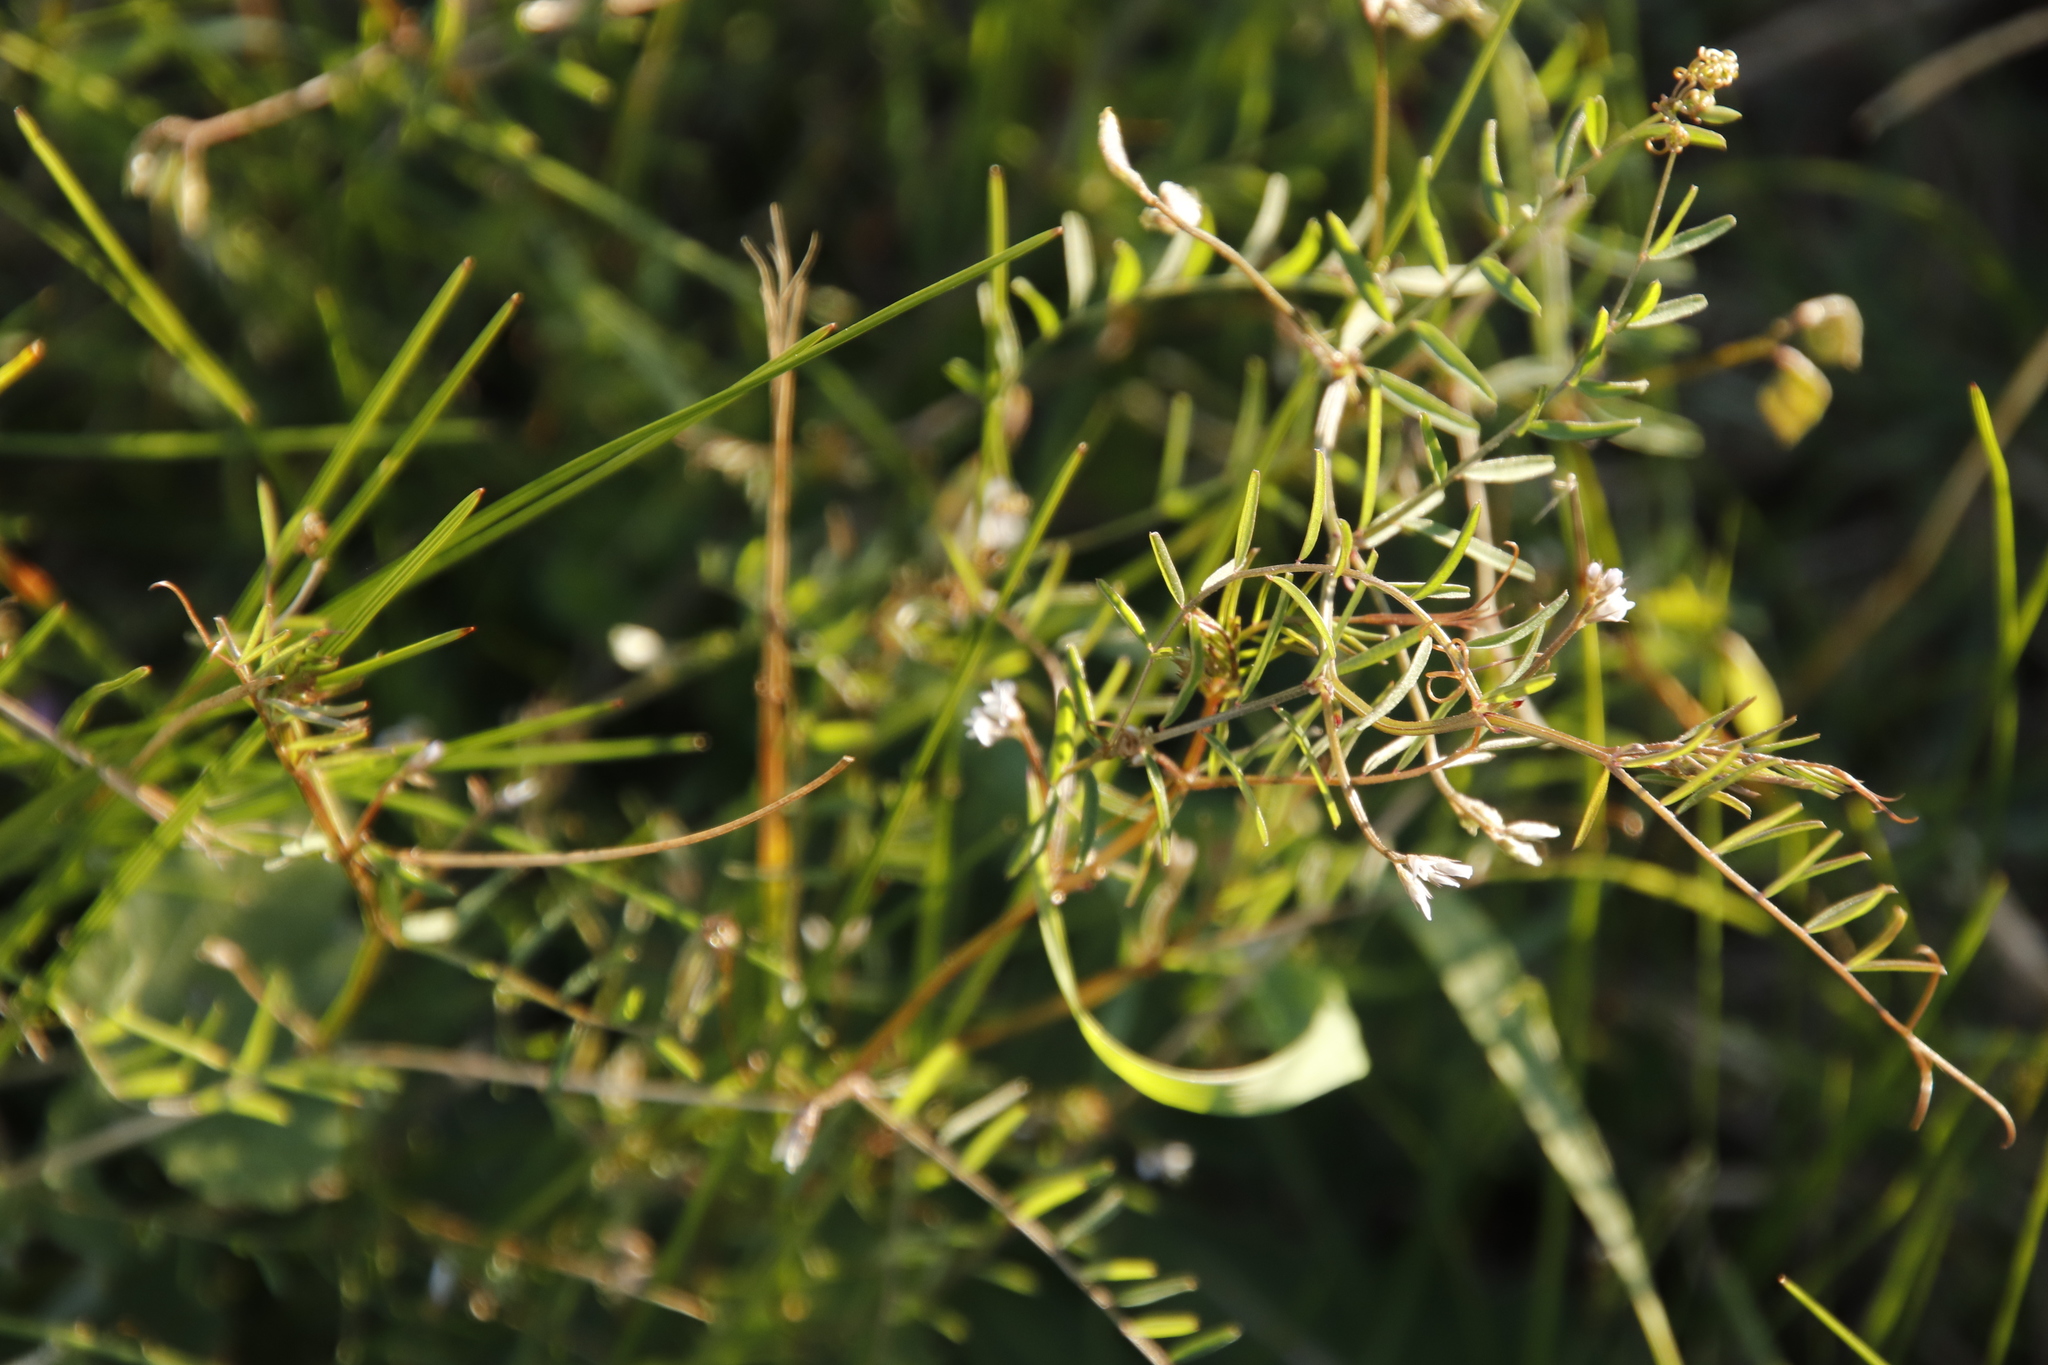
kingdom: Plantae
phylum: Tracheophyta
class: Magnoliopsida
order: Fabales
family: Fabaceae
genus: Vicia
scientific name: Vicia hirsuta
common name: Tiny vetch
